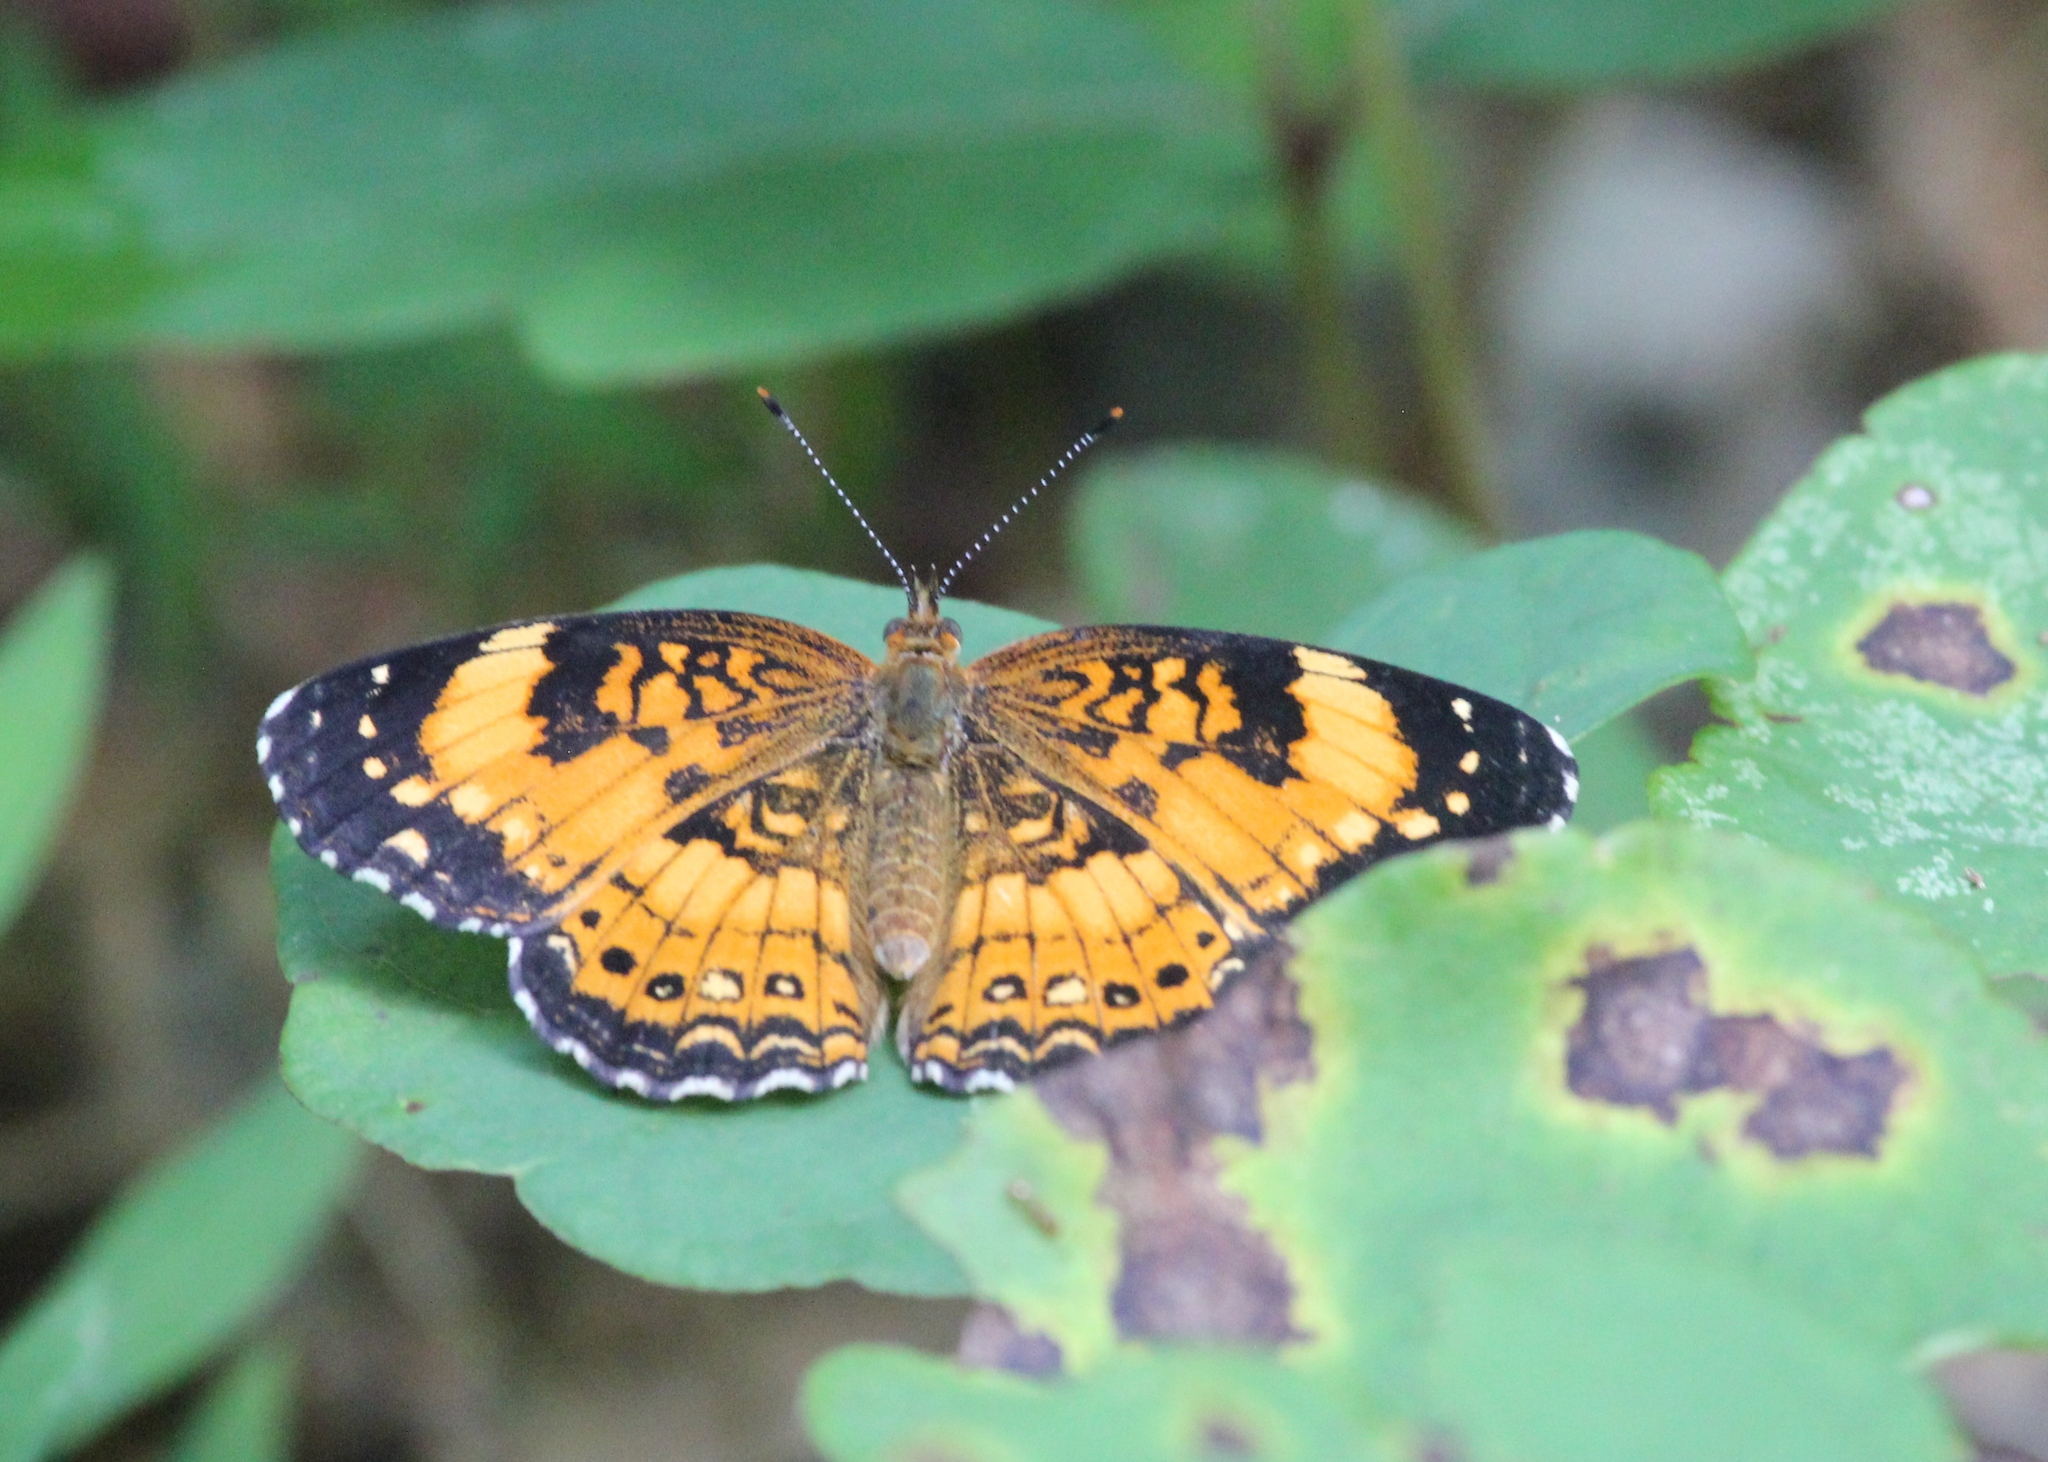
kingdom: Animalia
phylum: Arthropoda
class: Insecta
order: Lepidoptera
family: Nymphalidae
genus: Chlosyne
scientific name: Chlosyne nycteis
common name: Silvery checkerspot
